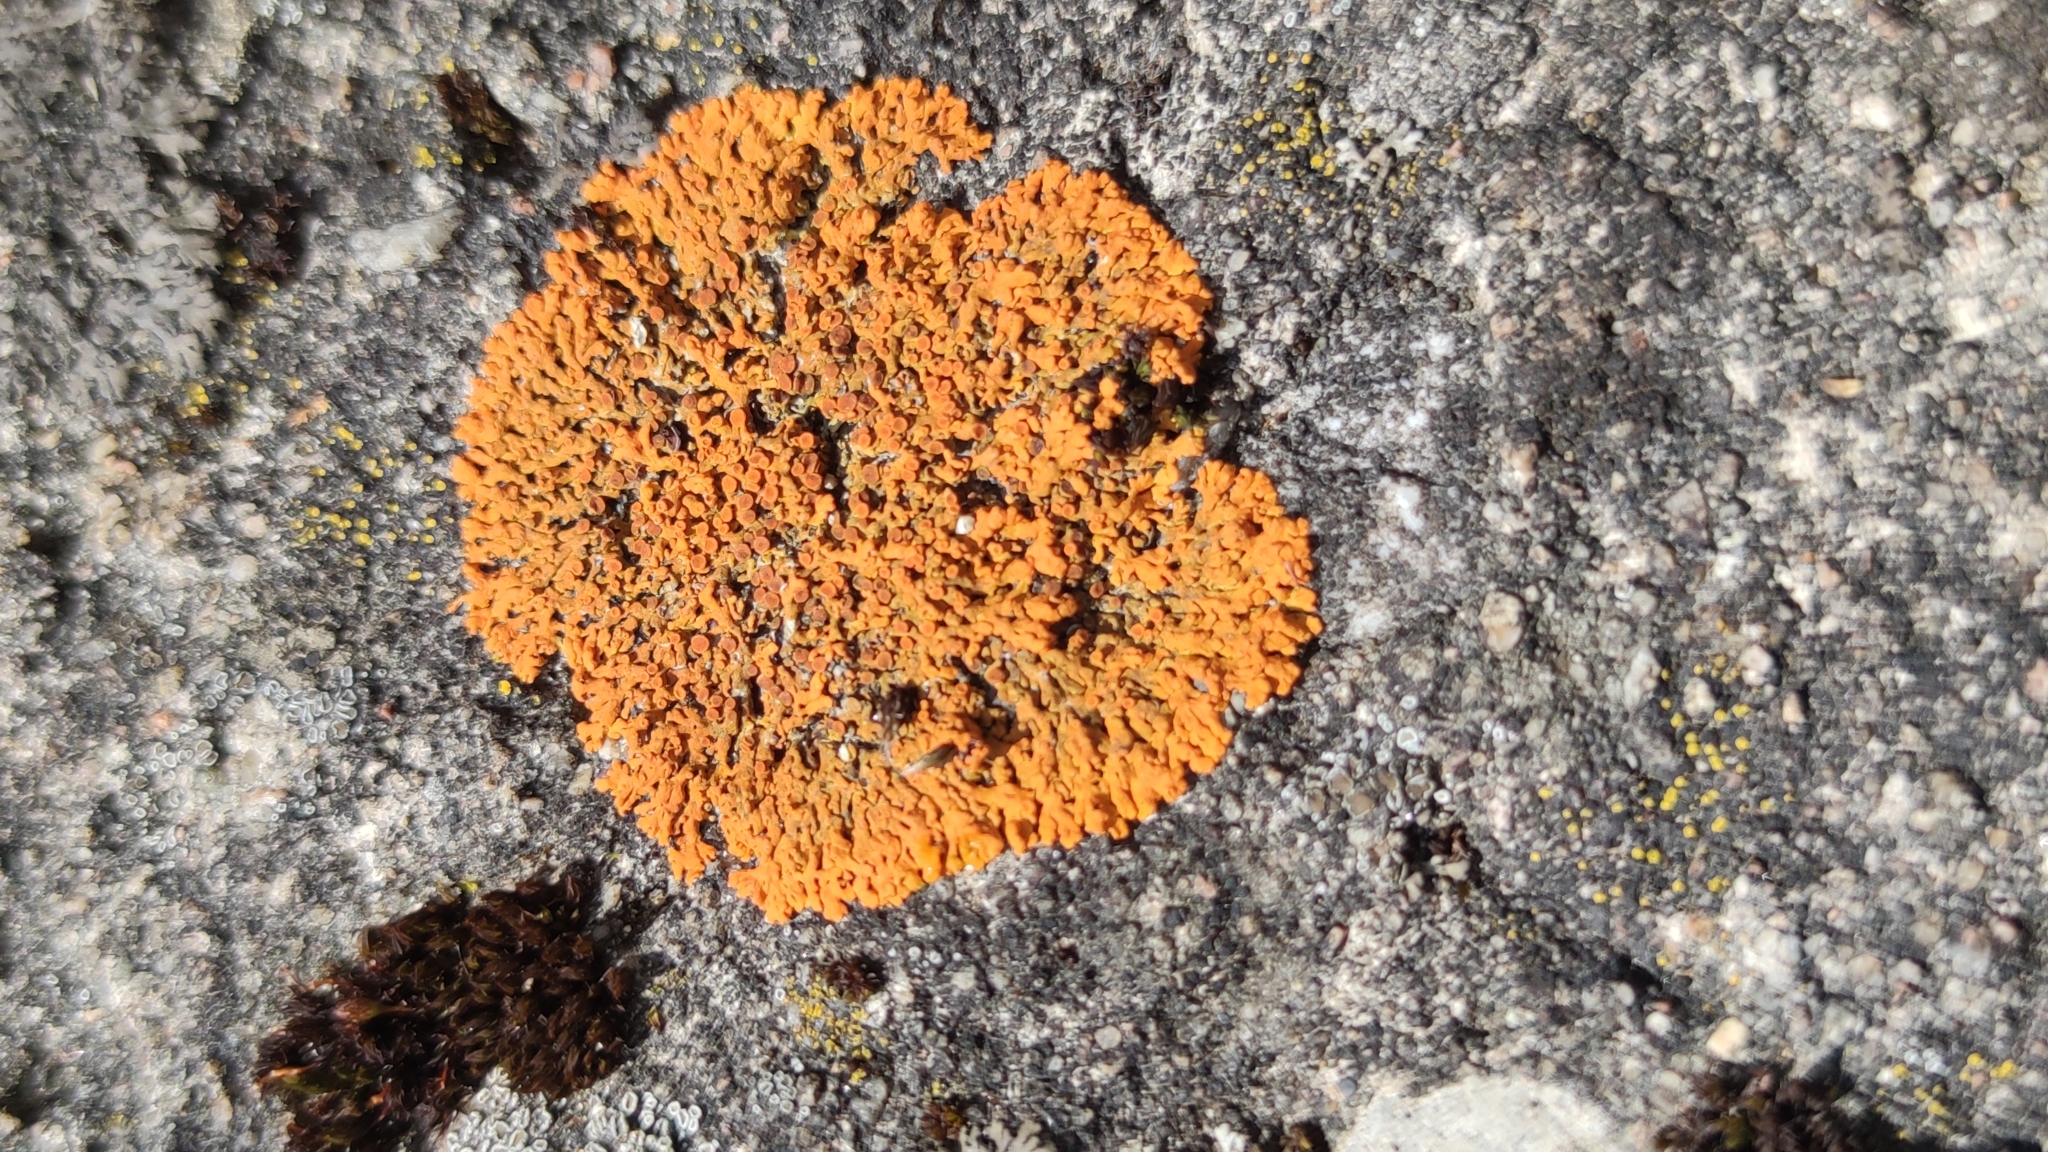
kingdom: Fungi
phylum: Ascomycota
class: Lecanoromycetes
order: Teloschistales
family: Teloschistaceae
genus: Xanthoria
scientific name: Xanthoria elegans
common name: Elegant sunburst lichen
